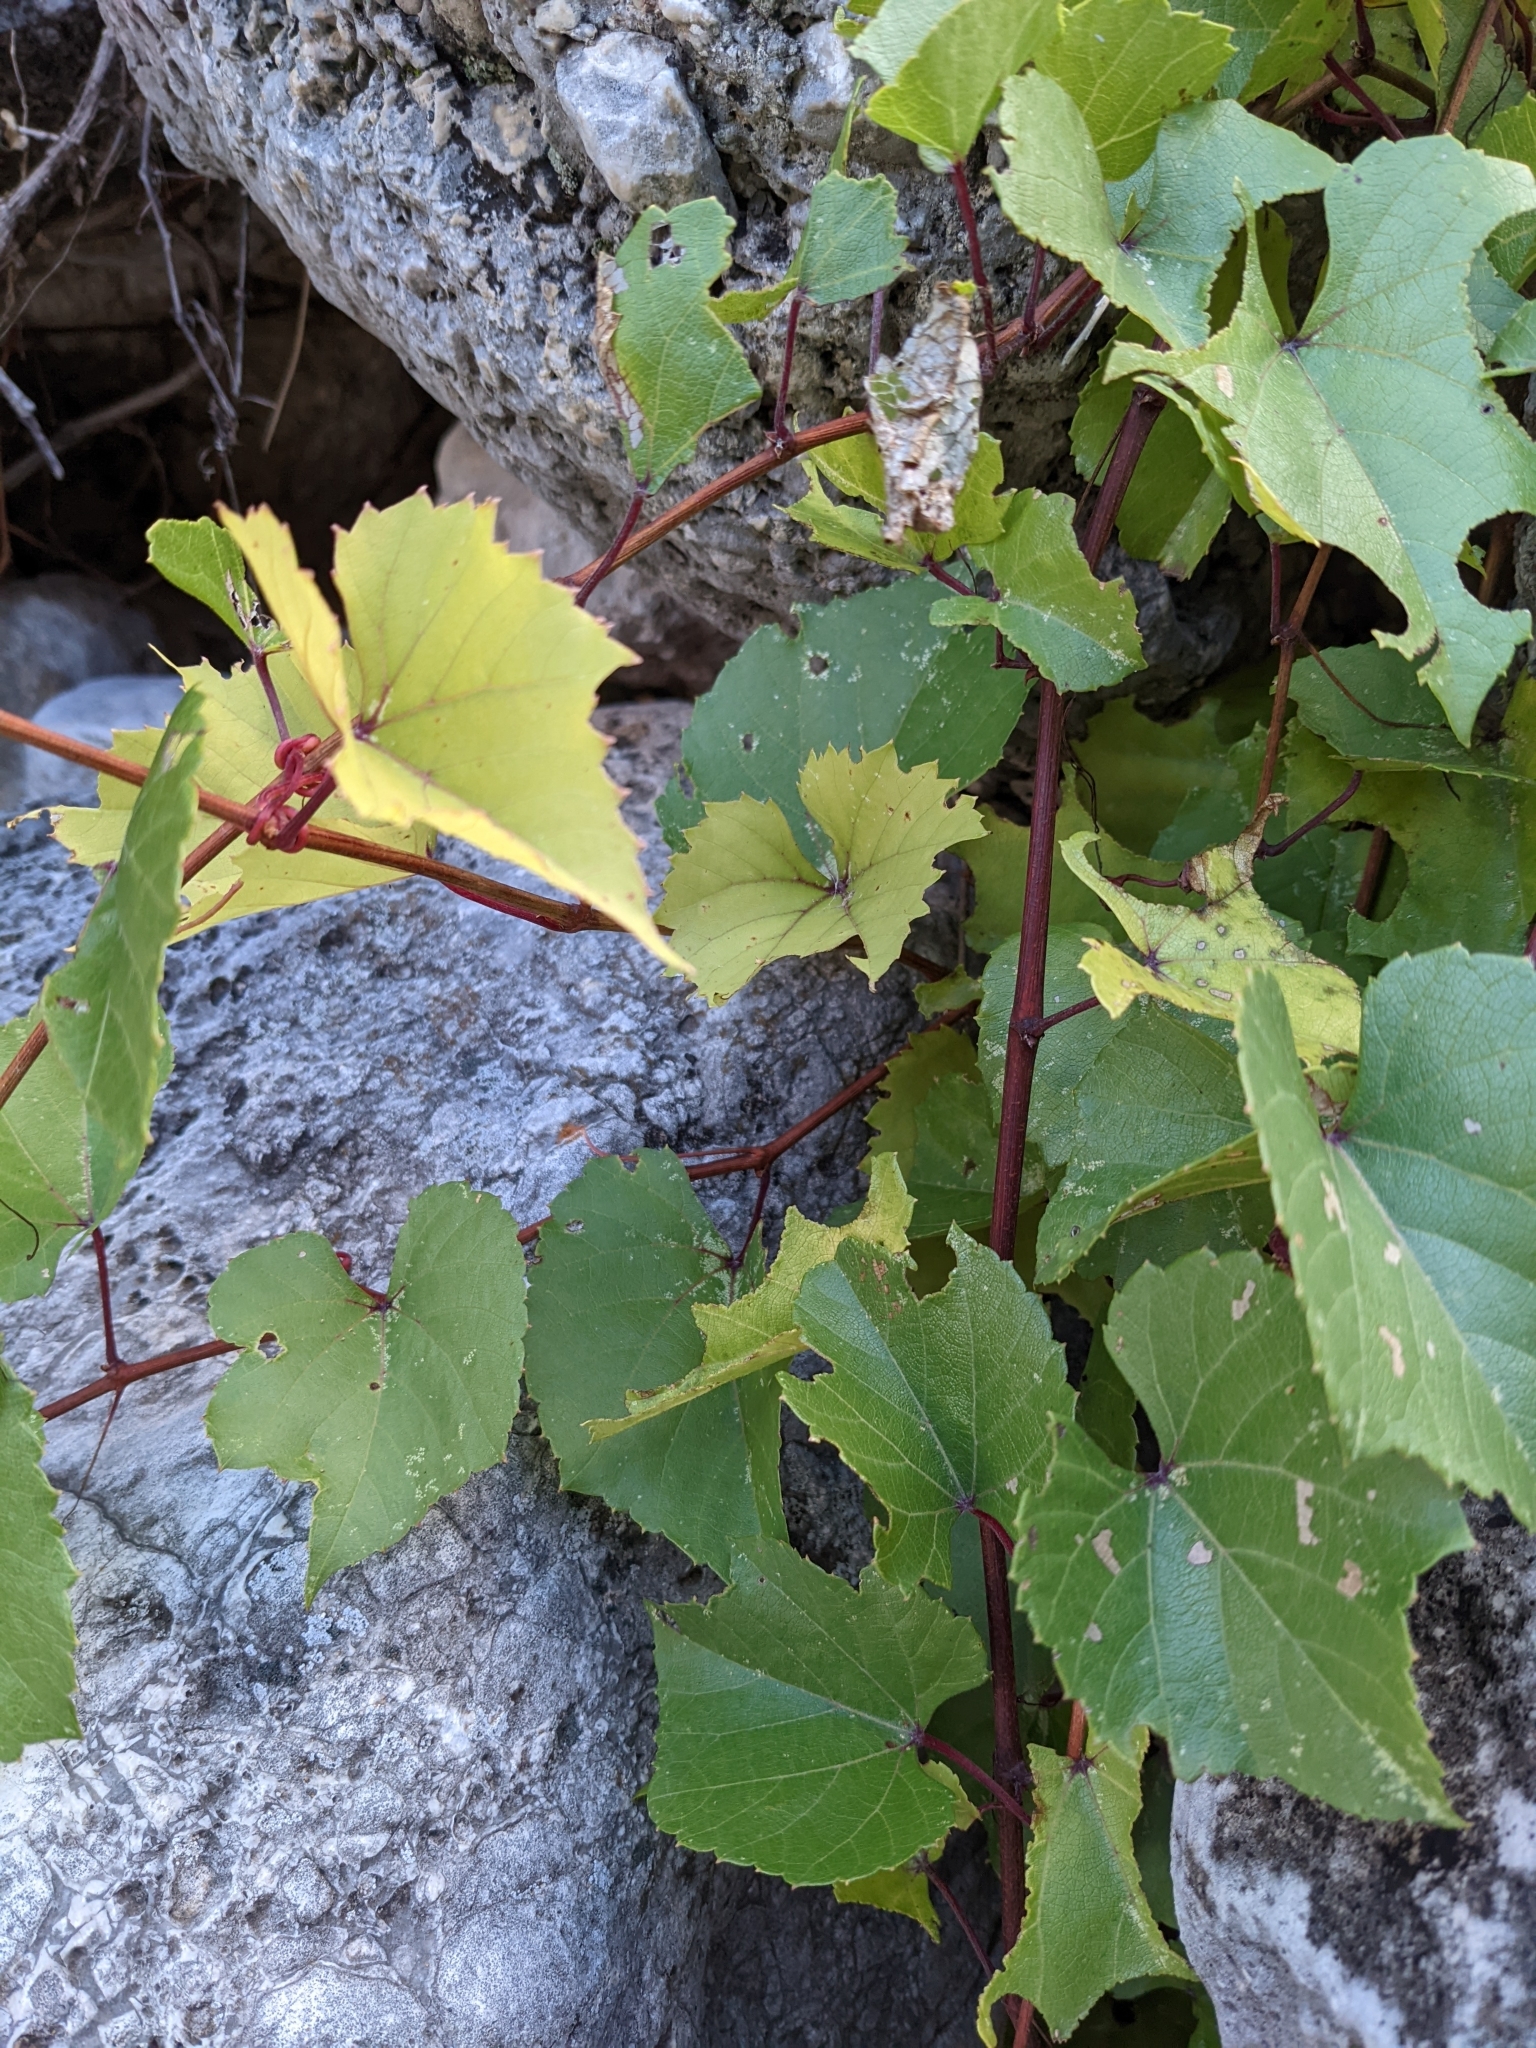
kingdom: Plantae
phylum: Tracheophyta
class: Magnoliopsida
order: Vitales
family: Vitaceae
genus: Vitis
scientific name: Vitis arizonica
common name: Canyon grape
